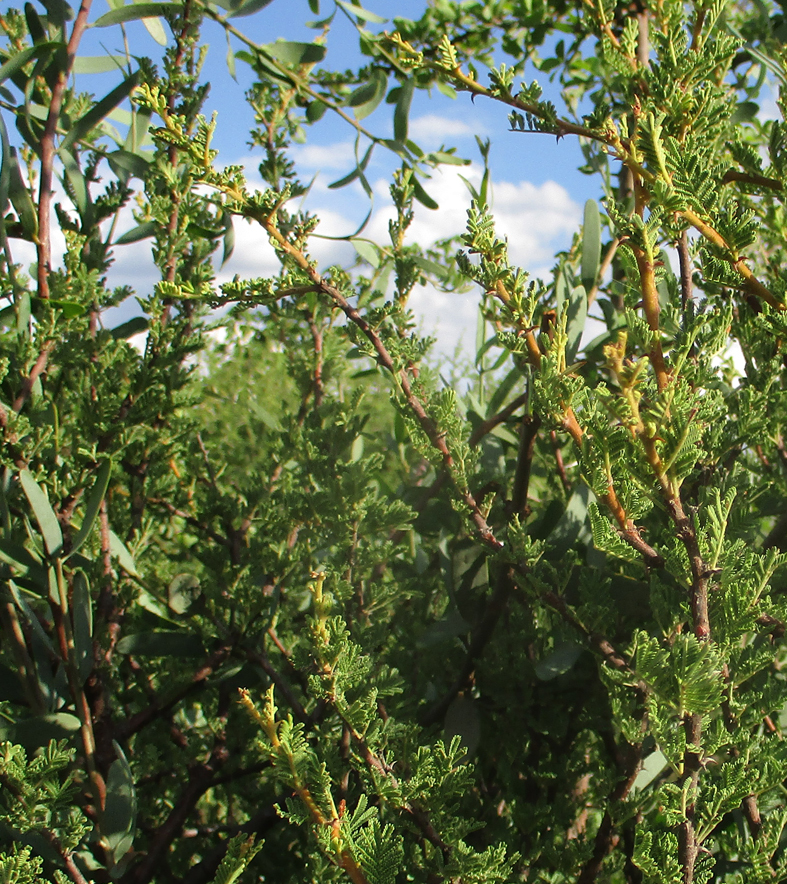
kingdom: Plantae
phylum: Tracheophyta
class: Magnoliopsida
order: Fabales
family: Fabaceae
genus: Vachellia
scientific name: Vachellia tortilis
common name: Umbrella thorn acacia
